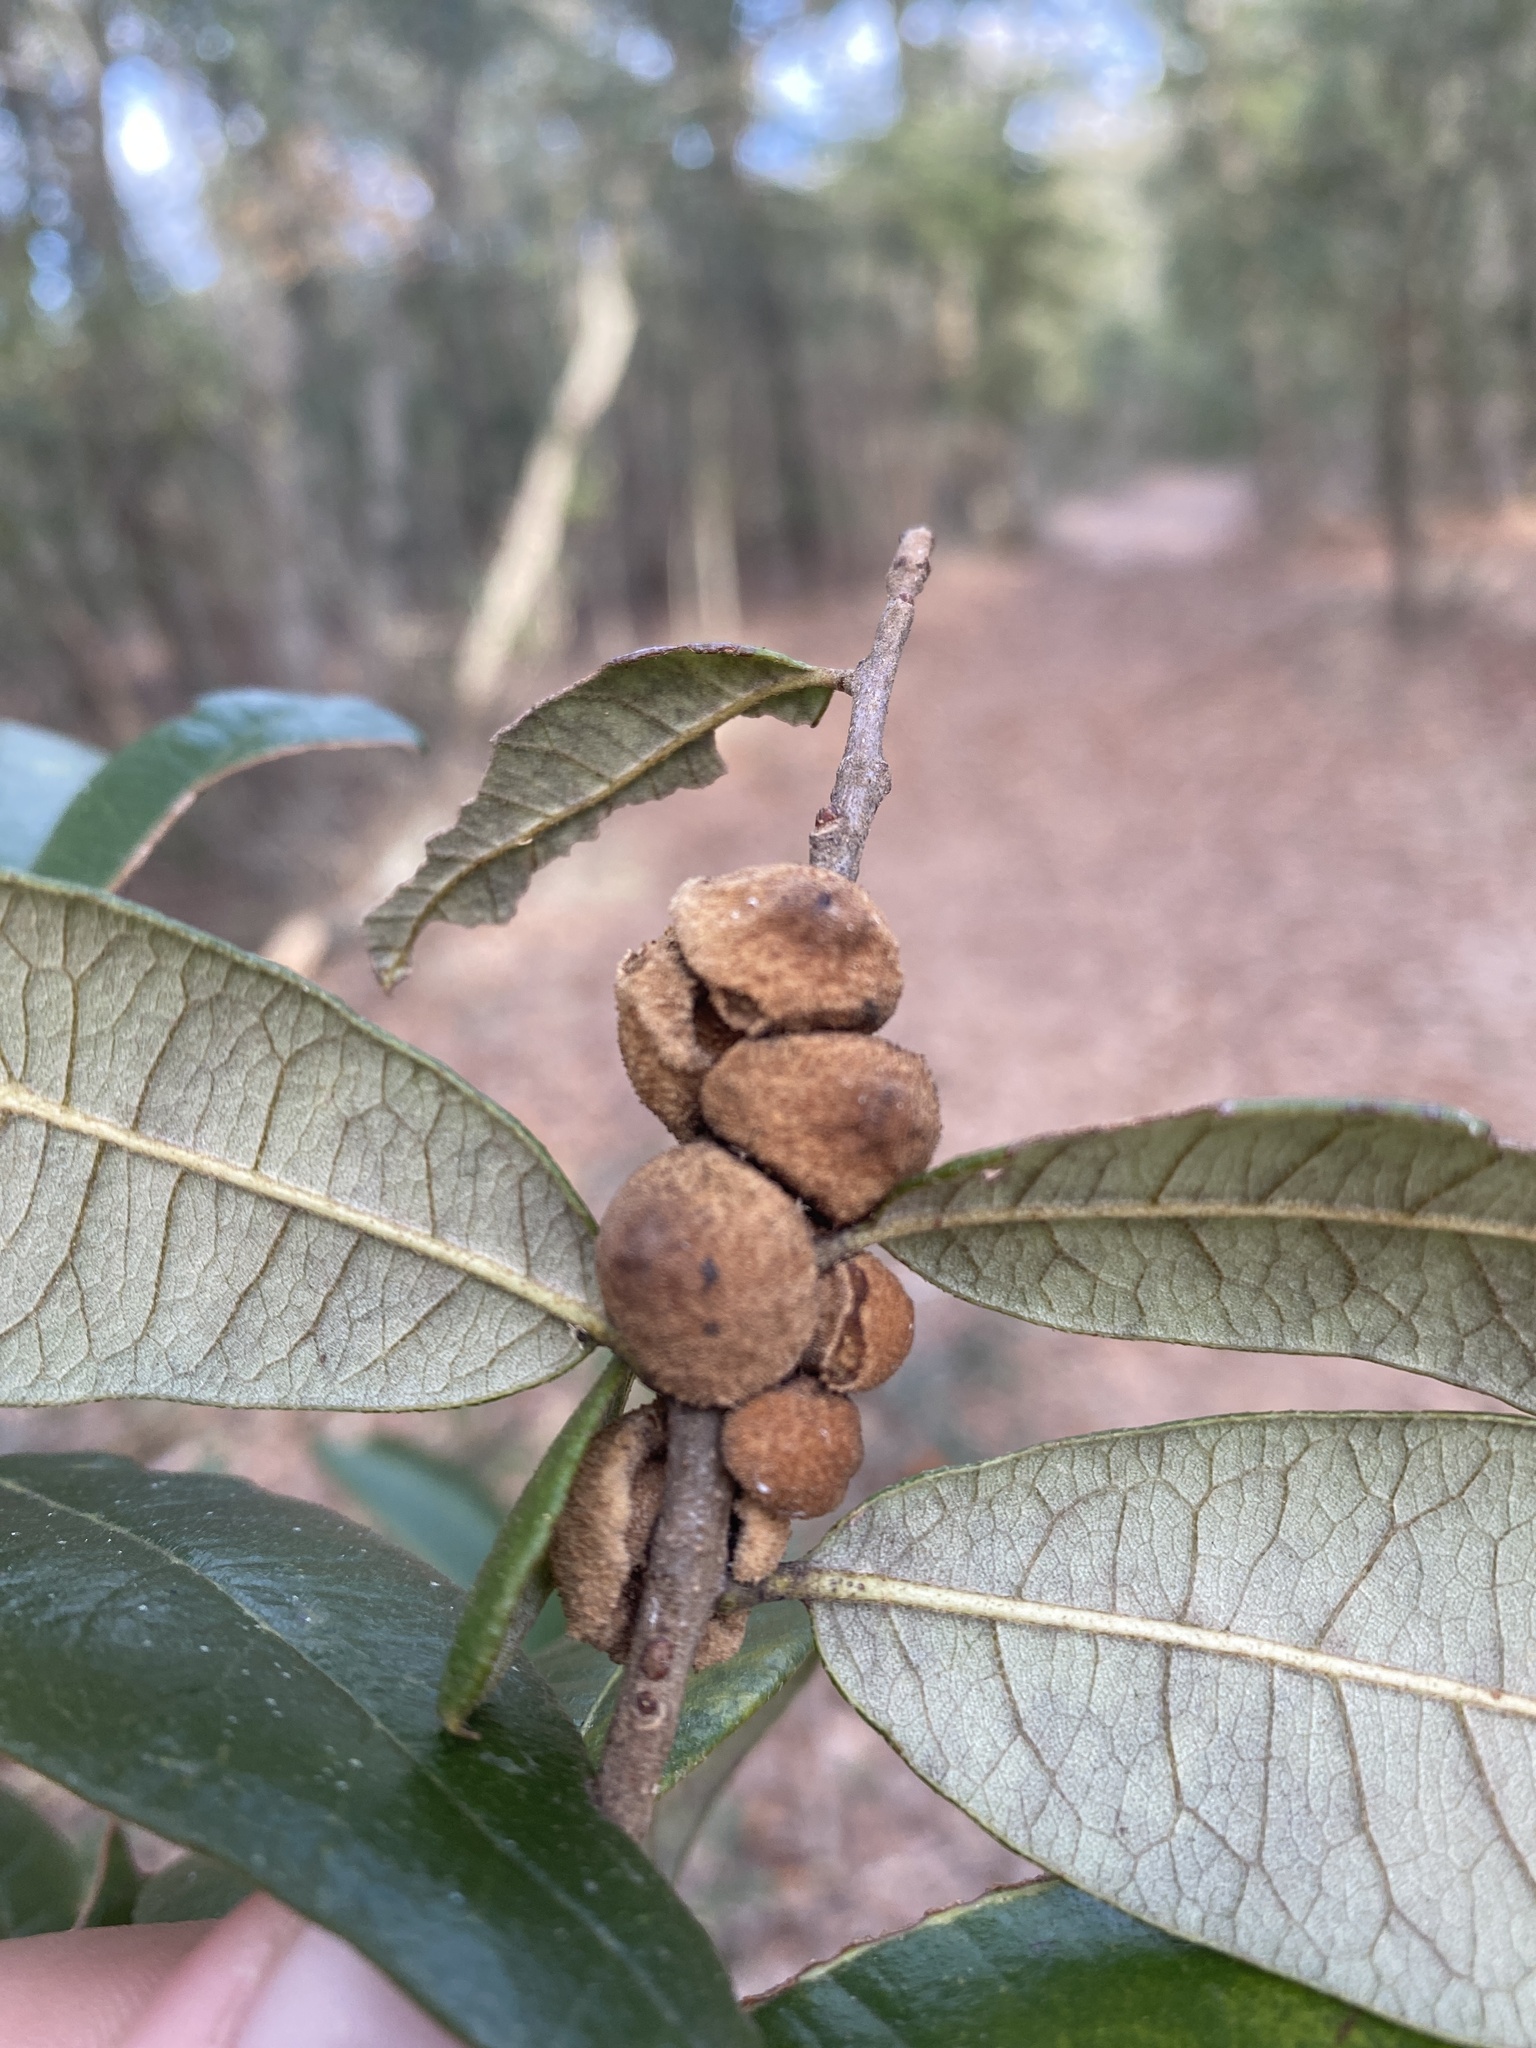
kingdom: Animalia
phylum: Arthropoda
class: Insecta
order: Hymenoptera
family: Cynipidae
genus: Disholcaspis
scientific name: Disholcaspis
